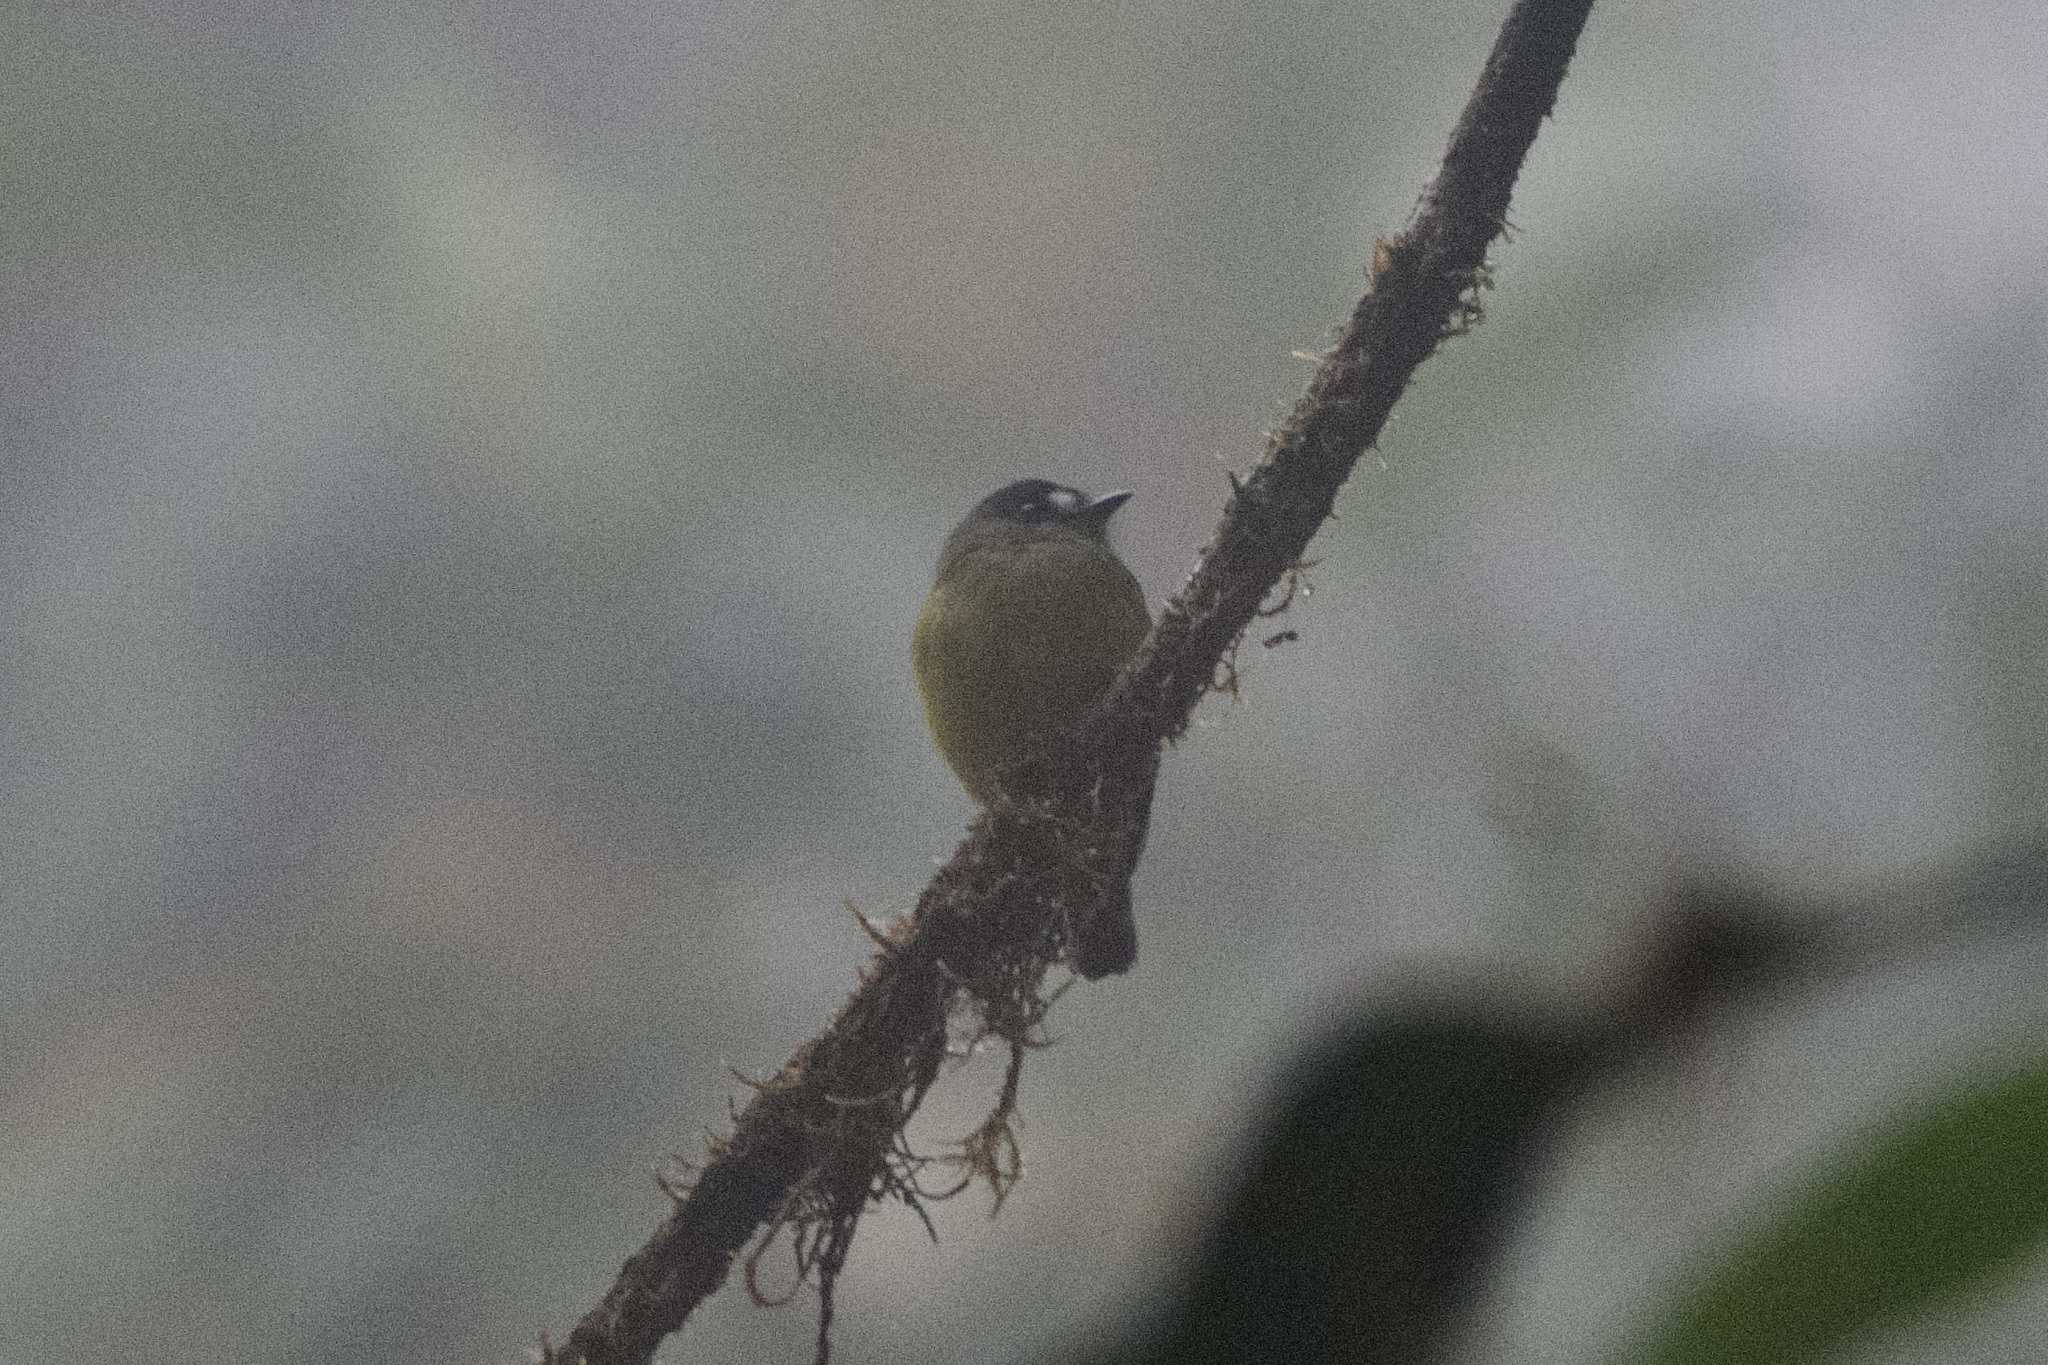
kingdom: Animalia
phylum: Chordata
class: Aves
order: Passeriformes
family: Tyrannidae
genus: Myiotriccus
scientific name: Myiotriccus ornatus
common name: Ornate flycatcher
